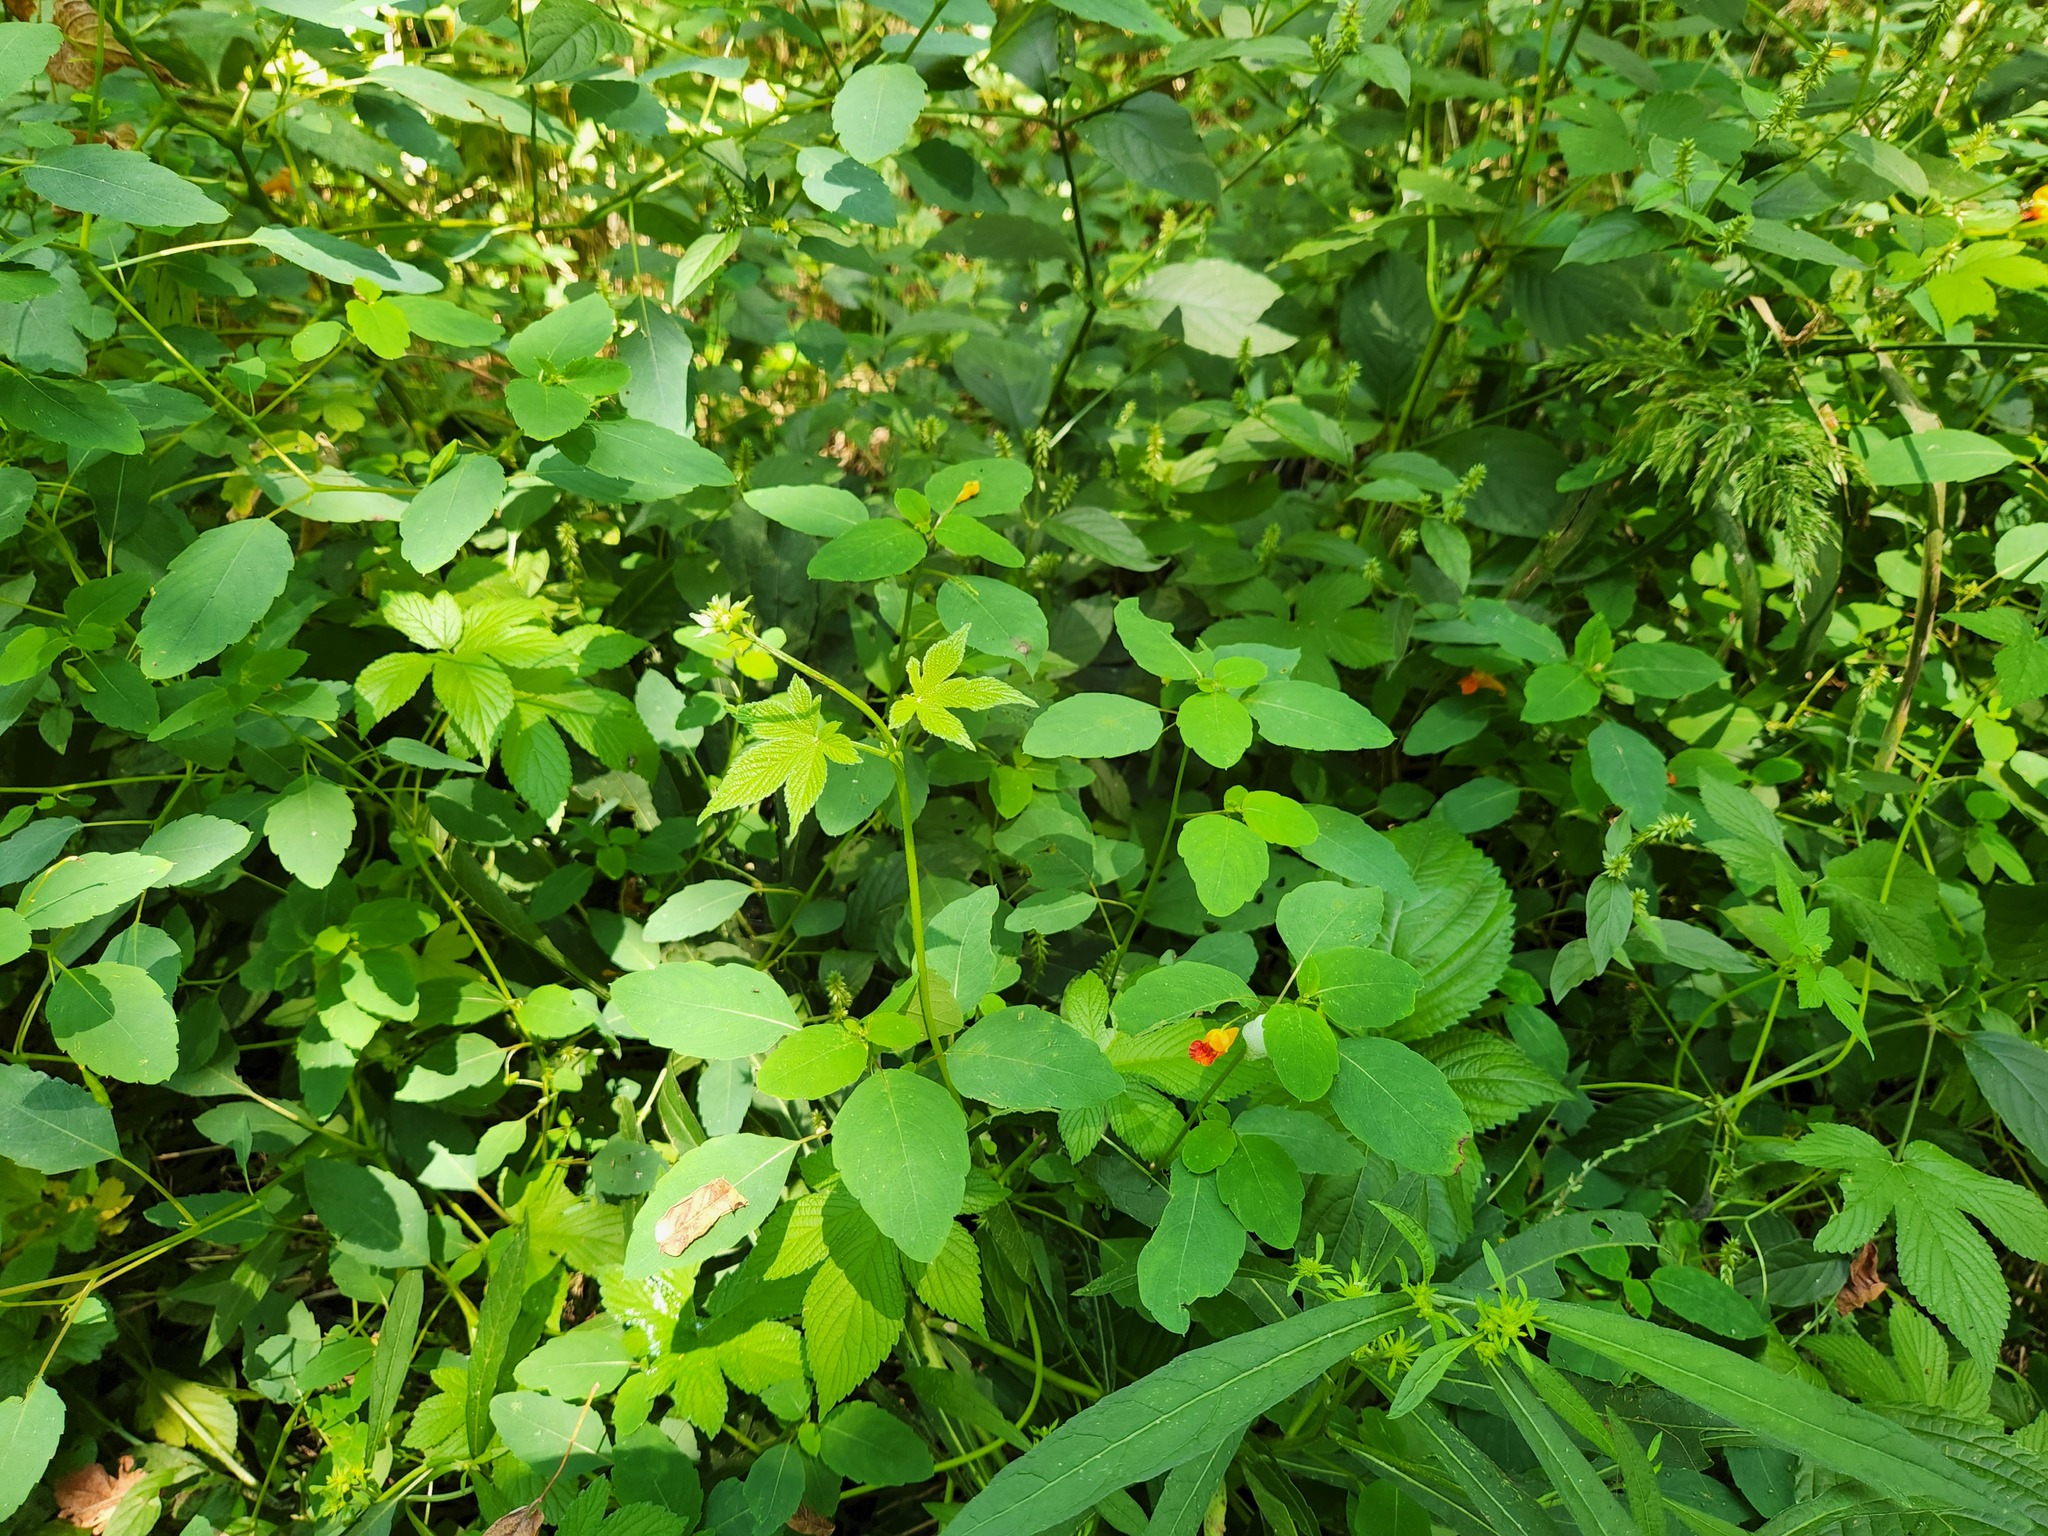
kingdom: Plantae
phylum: Tracheophyta
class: Magnoliopsida
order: Ericales
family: Balsaminaceae
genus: Impatiens
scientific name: Impatiens capensis
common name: Orange balsam
